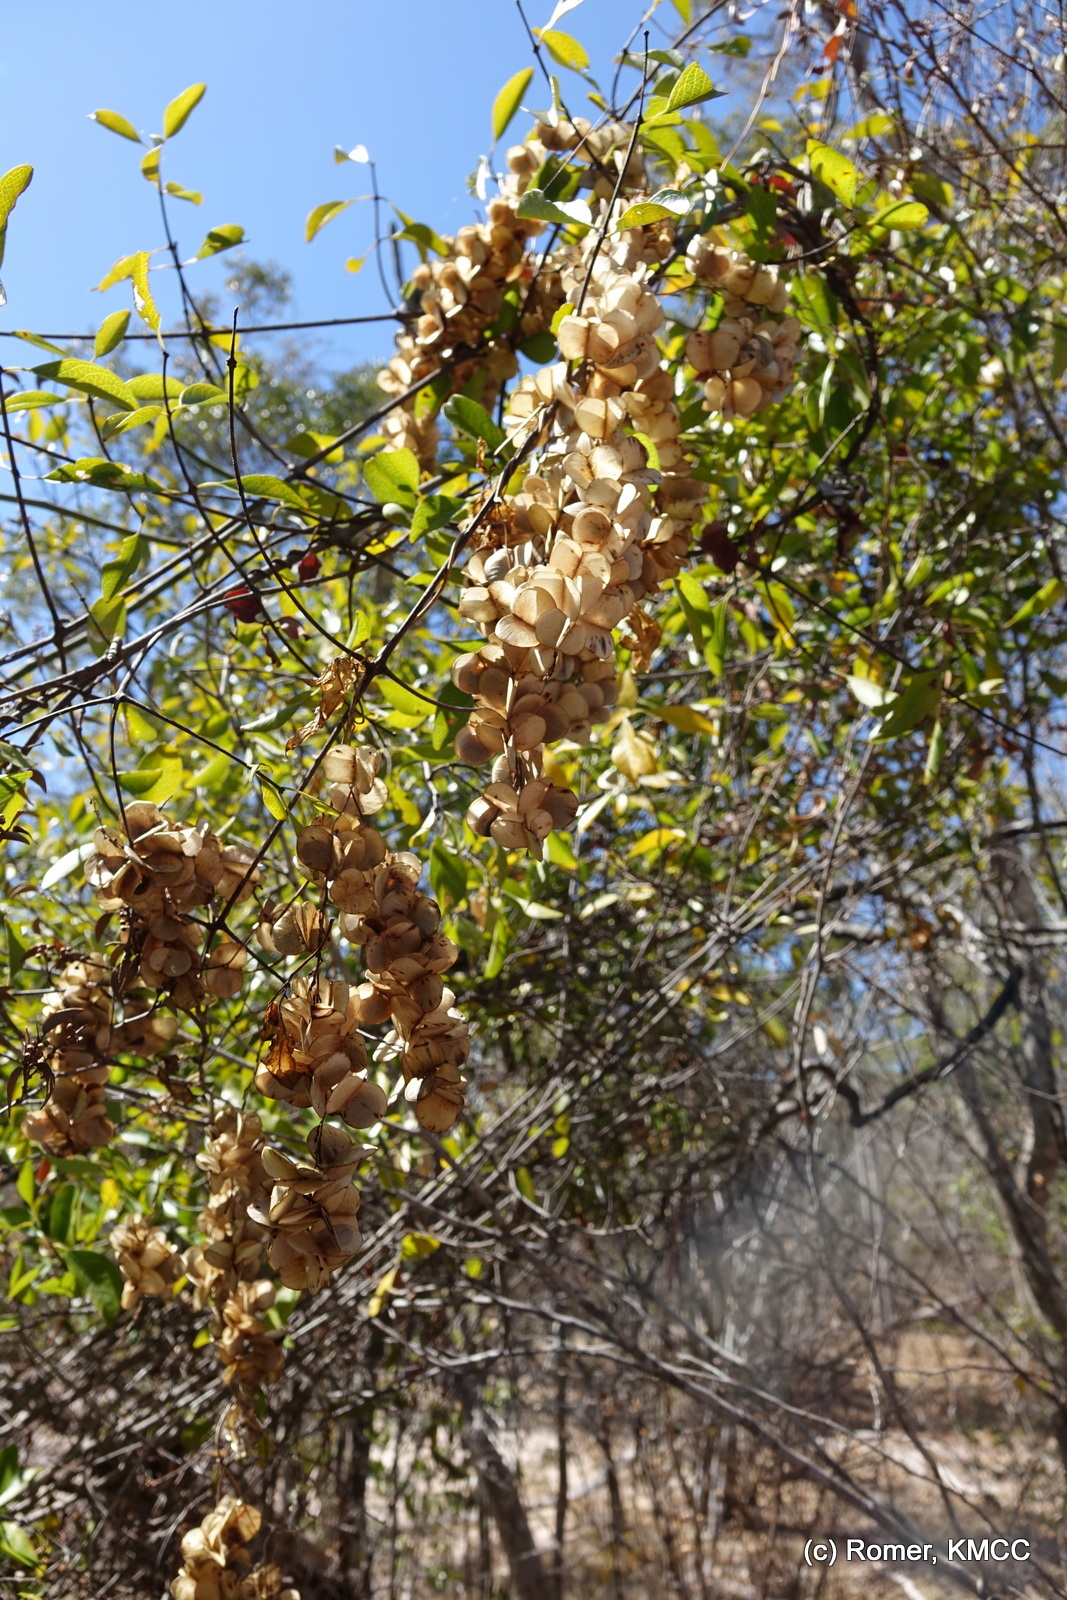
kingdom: Plantae
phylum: Tracheophyta
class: Liliopsida
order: Dioscoreales
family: Dioscoreaceae
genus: Dioscorea
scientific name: Dioscorea bemarivensis
